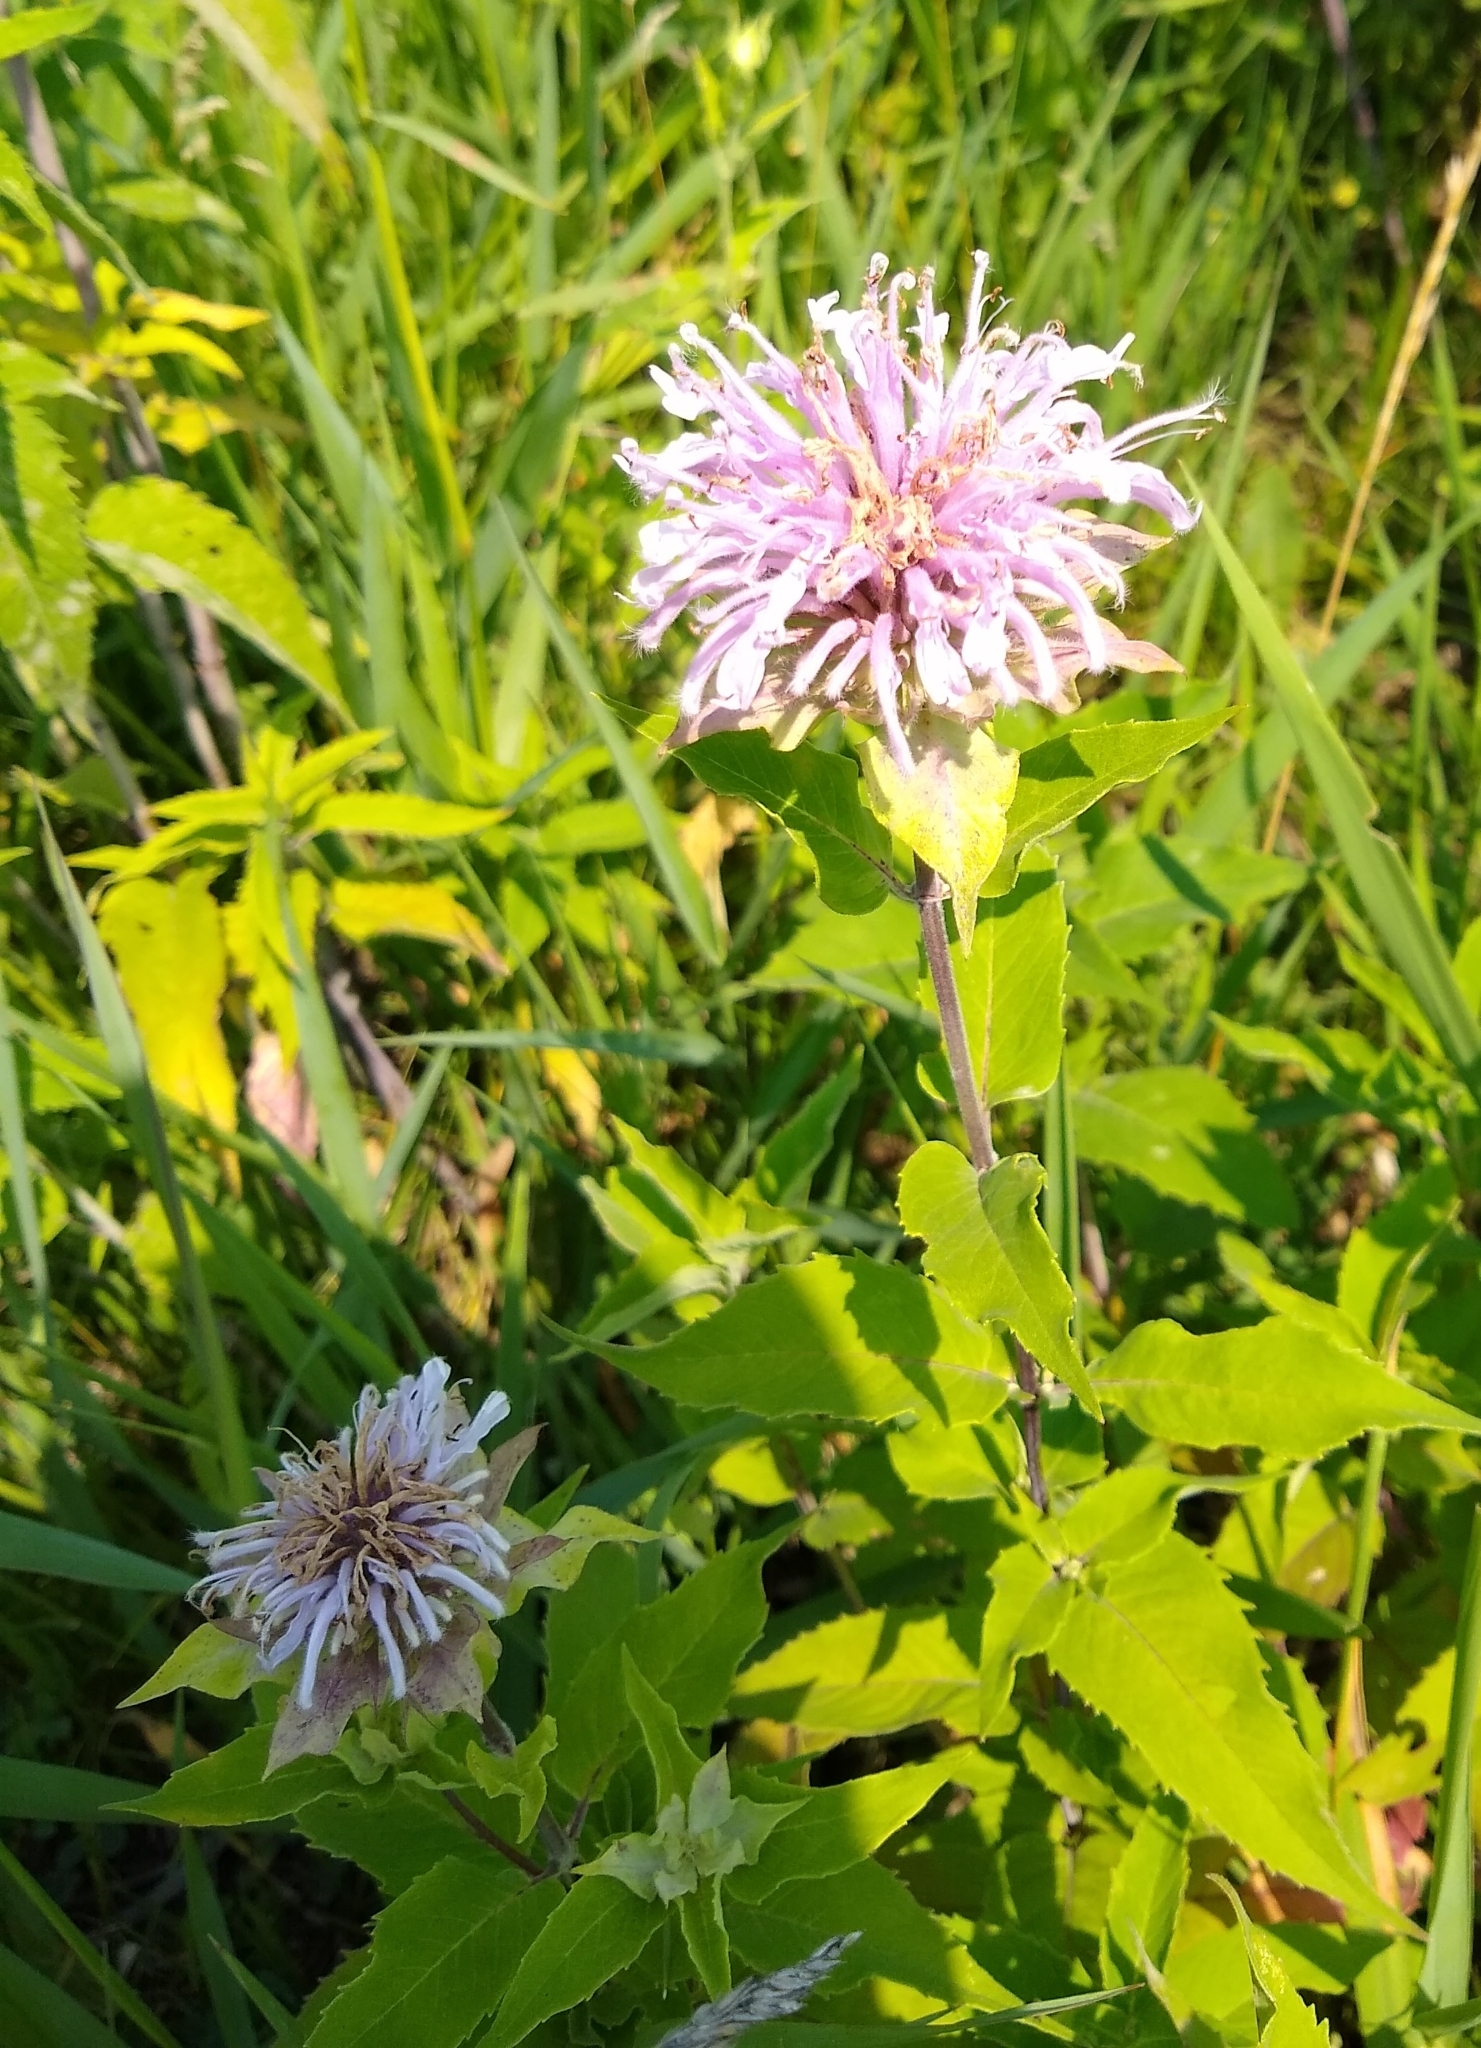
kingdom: Plantae
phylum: Tracheophyta
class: Magnoliopsida
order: Lamiales
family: Lamiaceae
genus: Monarda
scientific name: Monarda fistulosa
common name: Purple beebalm
